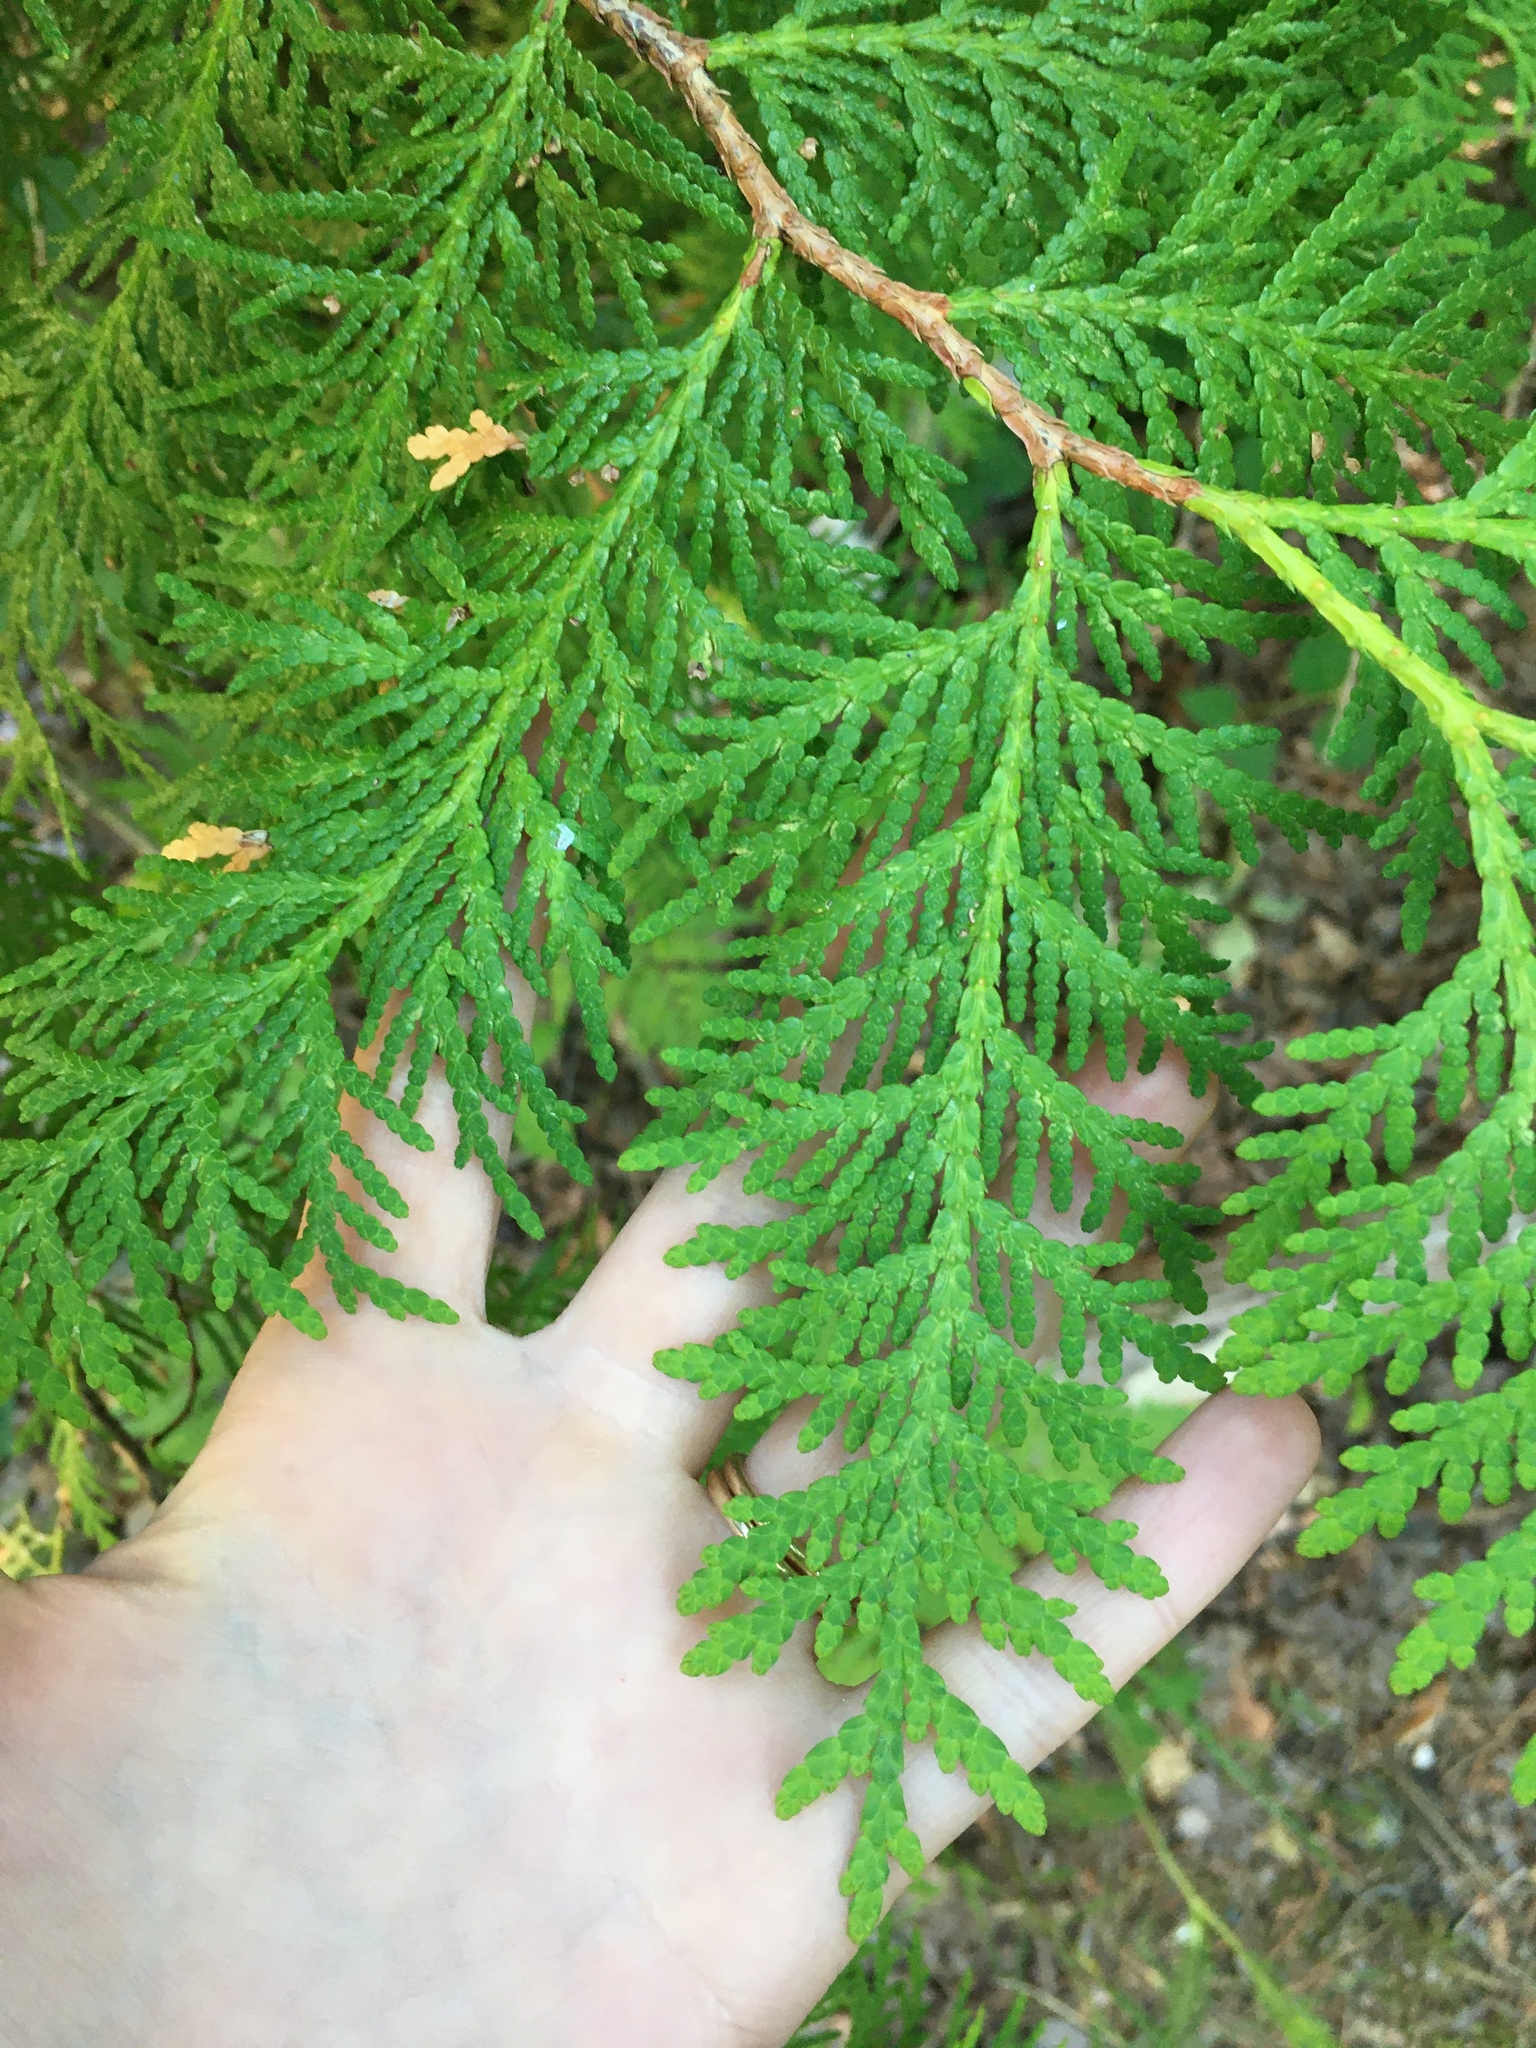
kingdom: Plantae
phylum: Tracheophyta
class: Pinopsida
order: Pinales
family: Cupressaceae
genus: Thuja
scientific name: Thuja occidentalis
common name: Northern white-cedar
